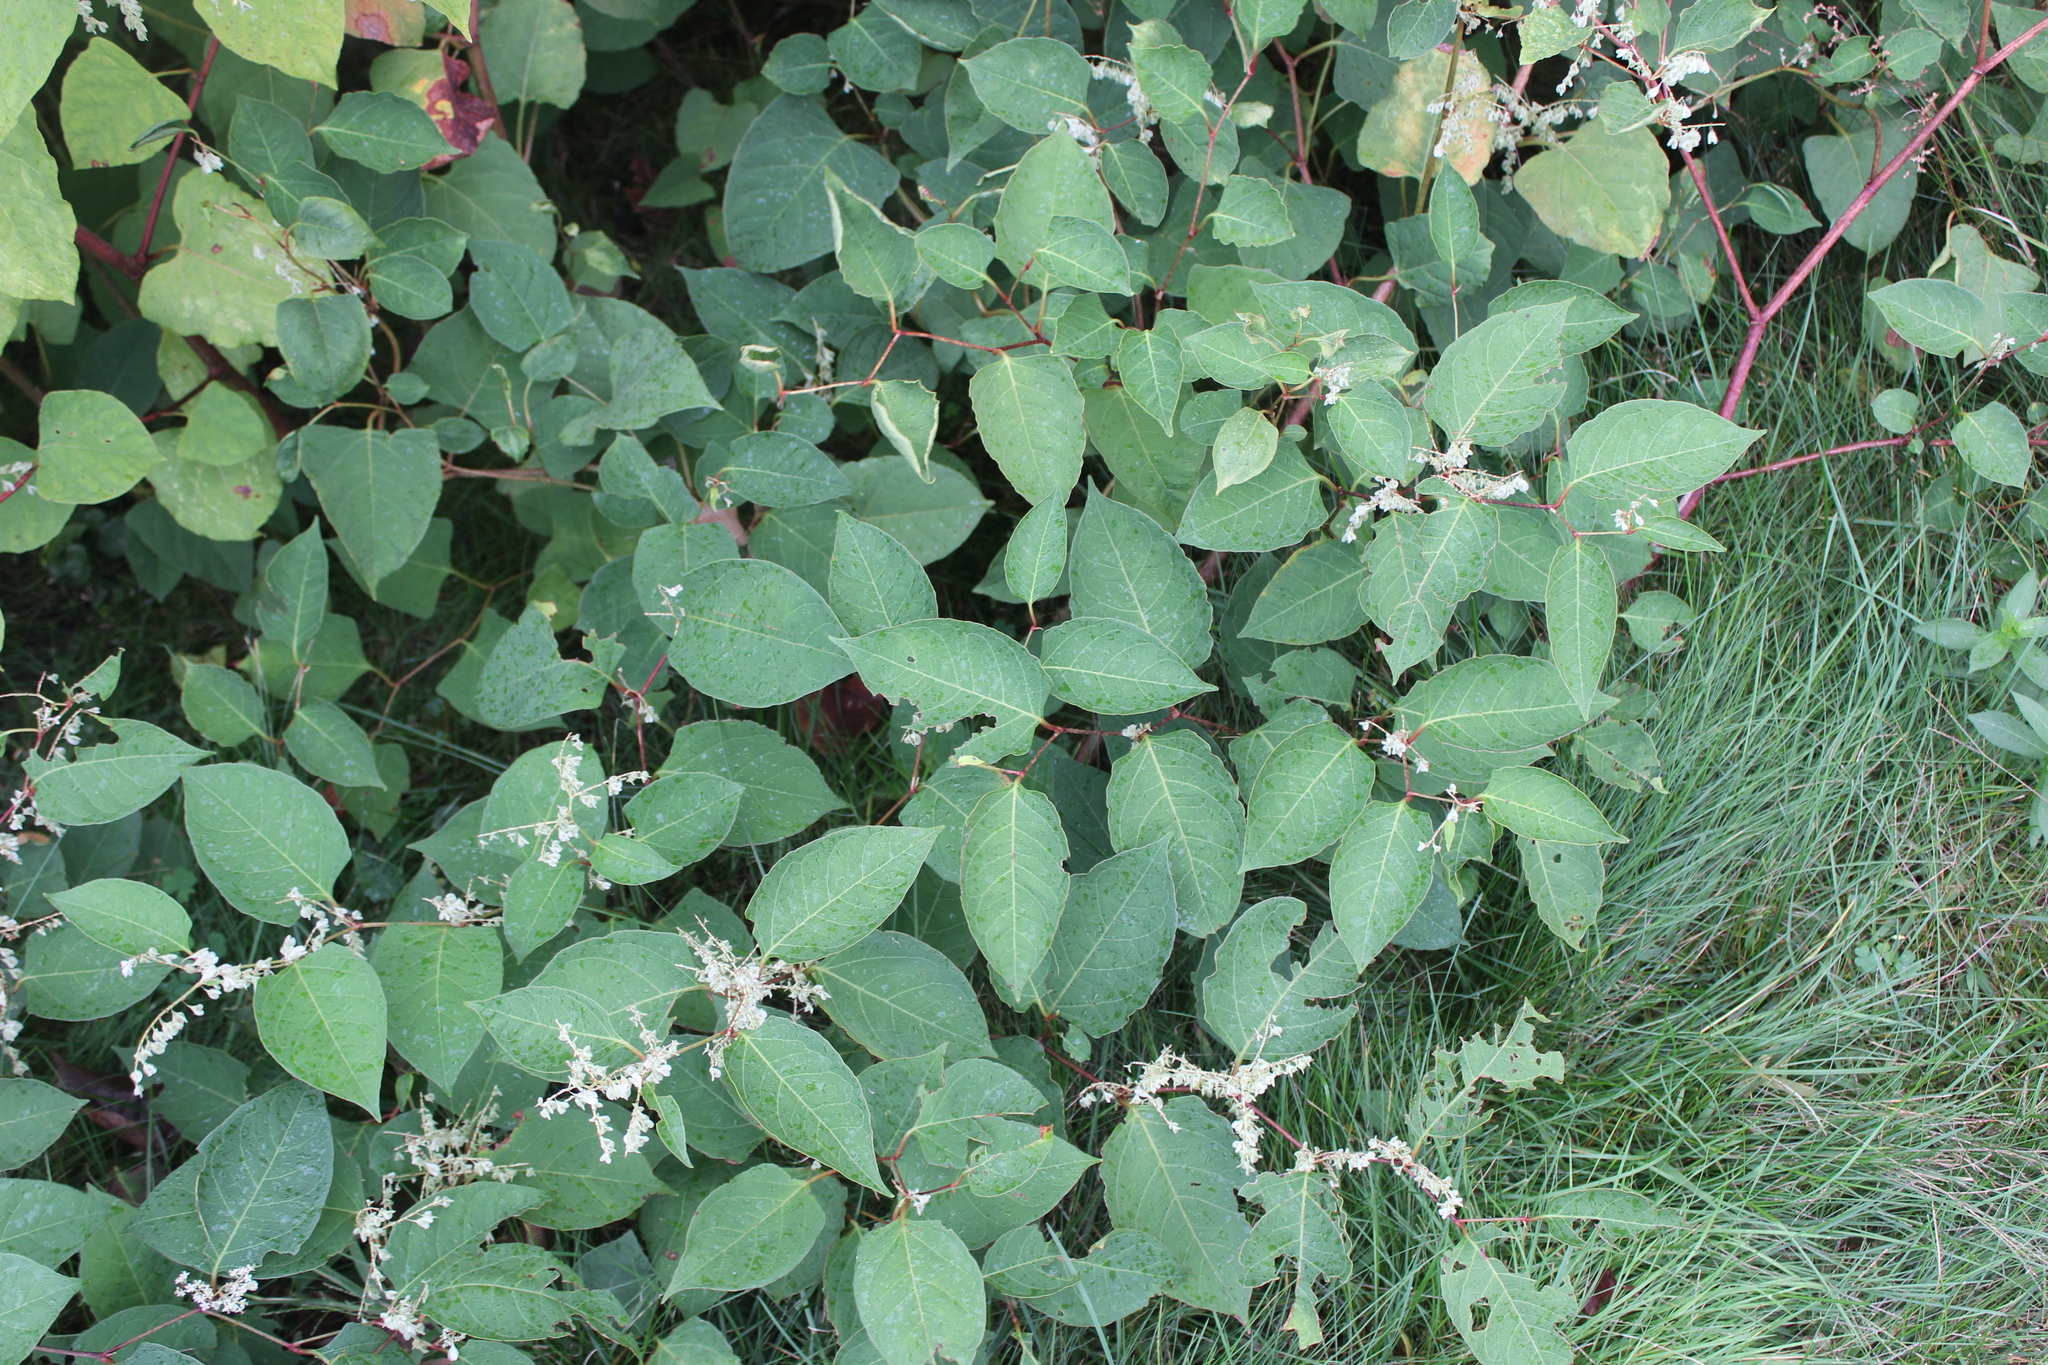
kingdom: Plantae
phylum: Tracheophyta
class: Magnoliopsida
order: Caryophyllales
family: Polygonaceae
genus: Reynoutria
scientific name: Reynoutria japonica
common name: Japanese knotweed
